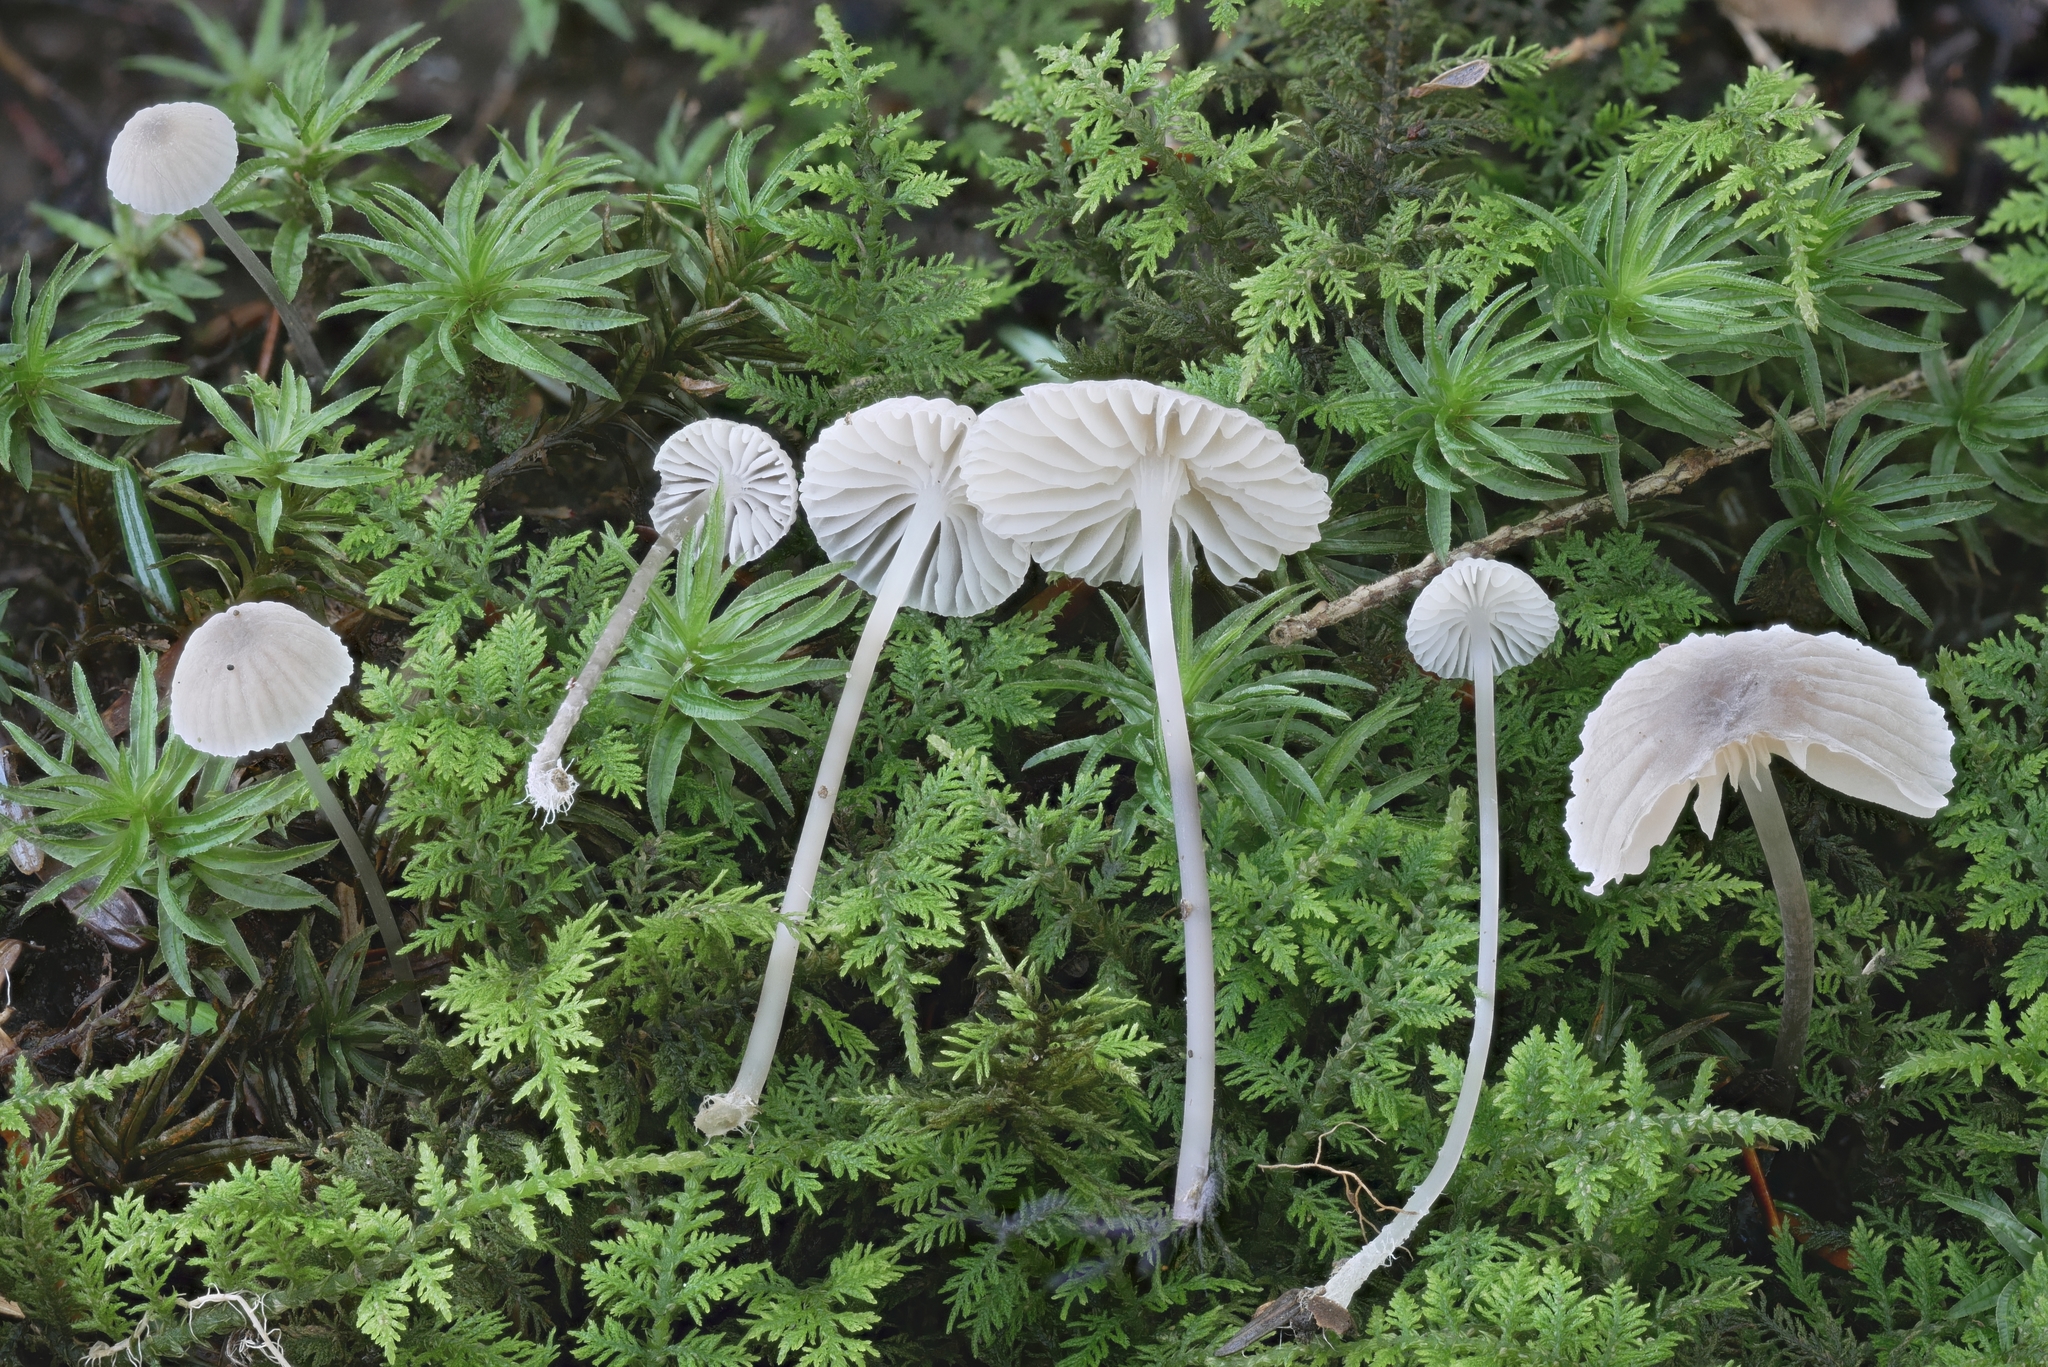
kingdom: Fungi
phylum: Basidiomycota
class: Agaricomycetes
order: Agaricales
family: Mycenaceae
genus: Mycena
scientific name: Mycena latifolia
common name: Sideshoot bonnet
